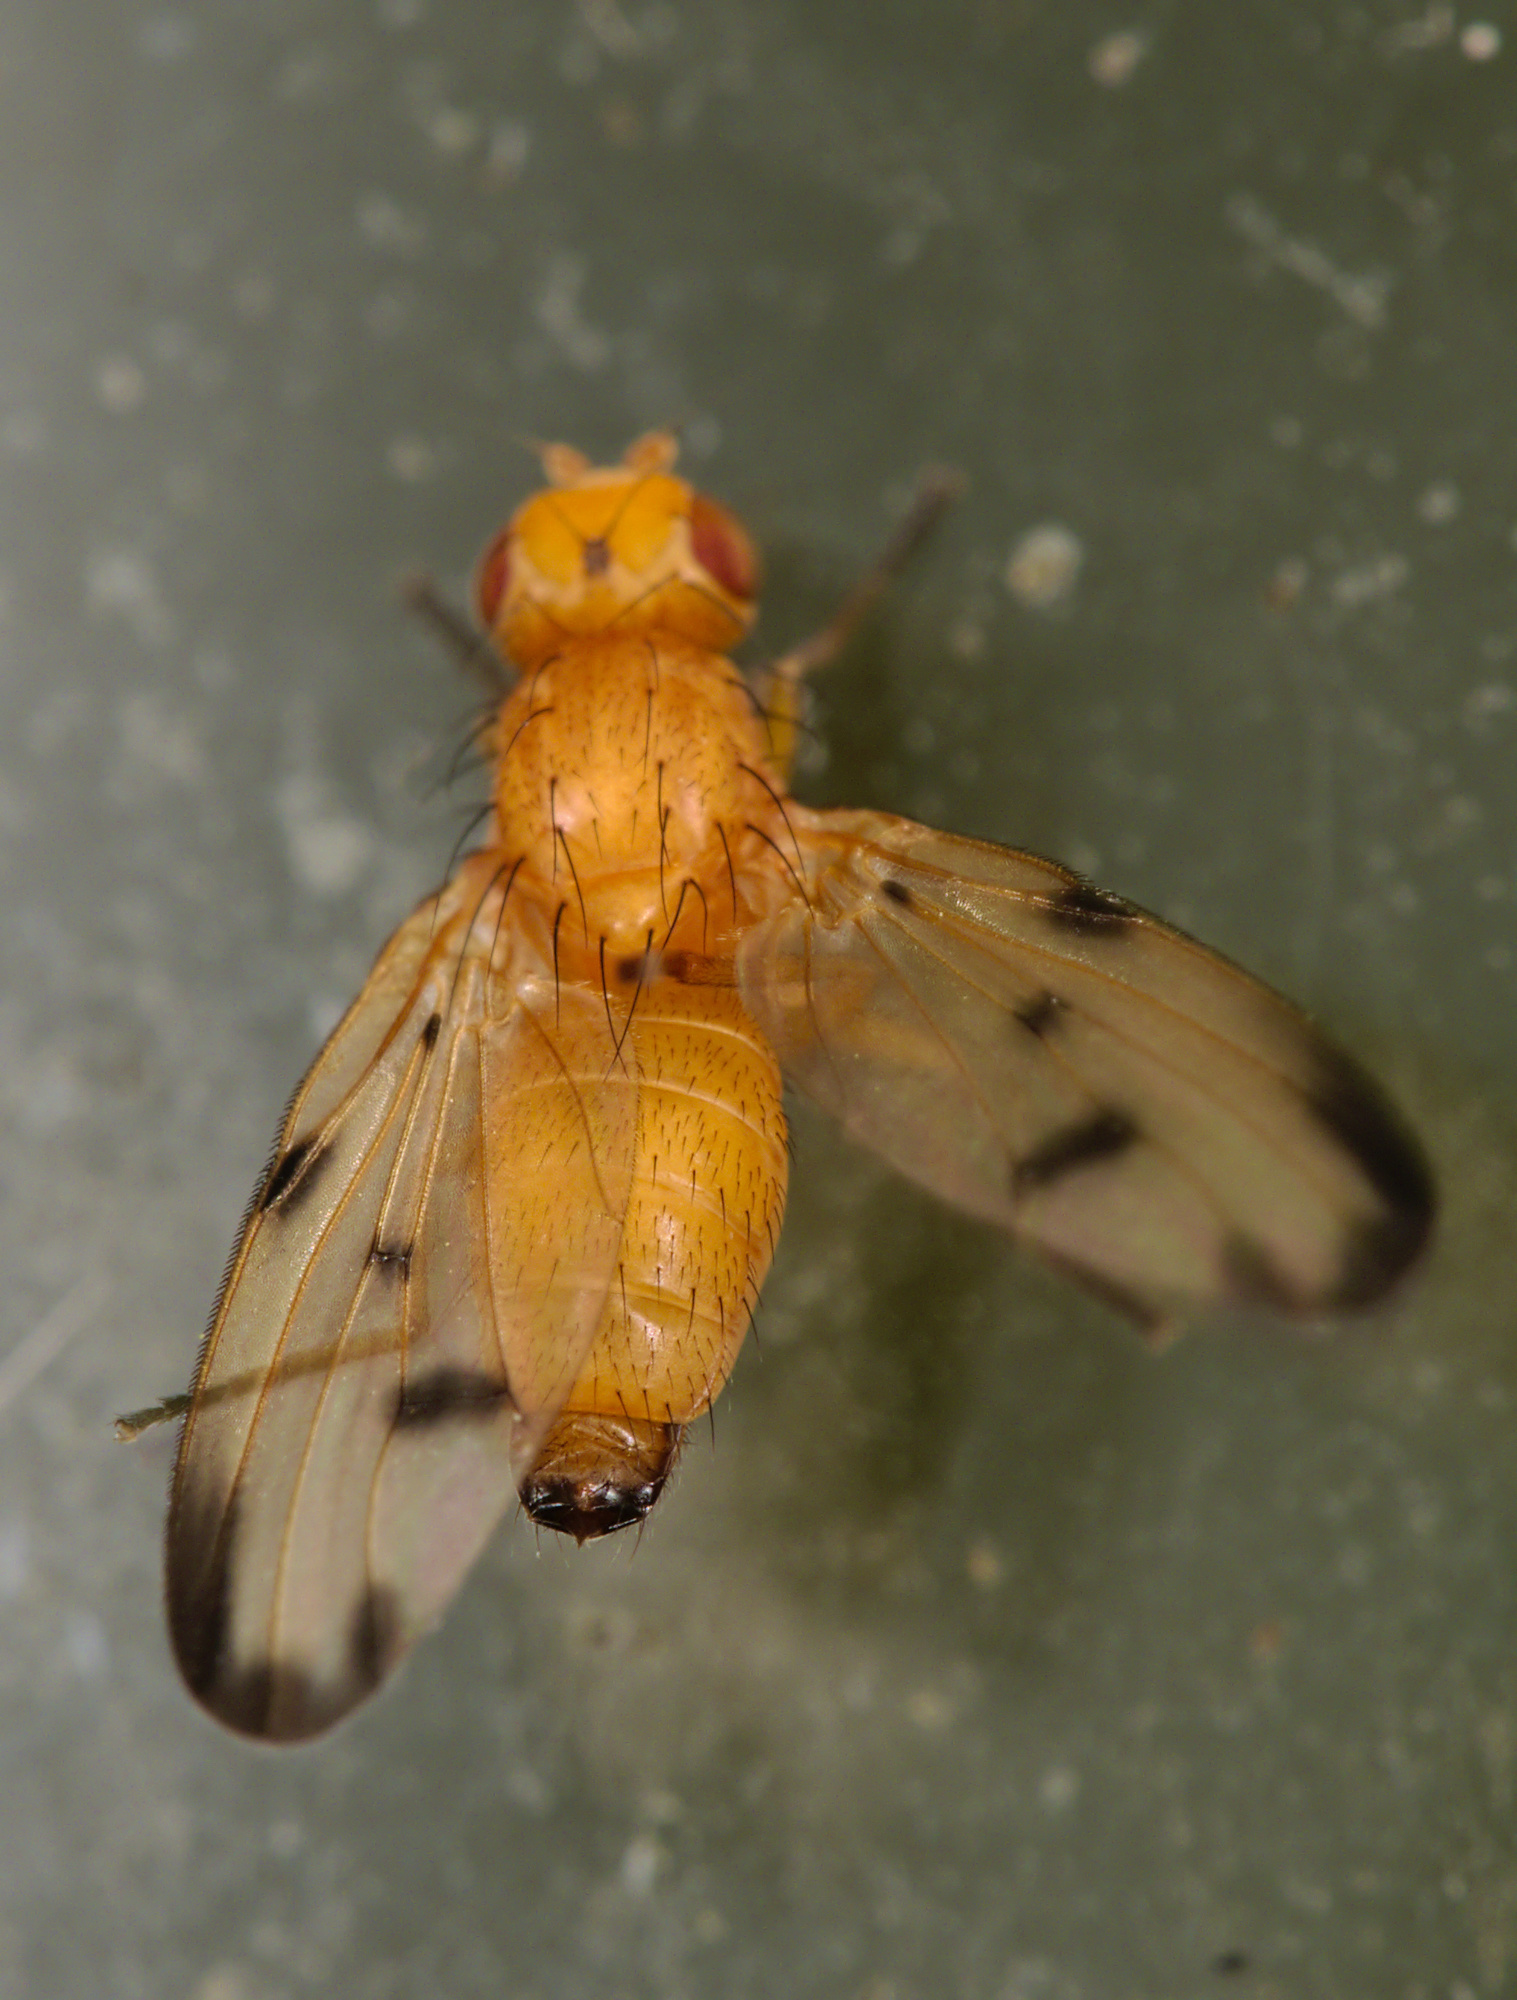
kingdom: Animalia
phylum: Arthropoda
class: Insecta
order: Diptera
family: Pallopteridae
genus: Toxonevra
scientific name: Toxonevra quinquemaculata
